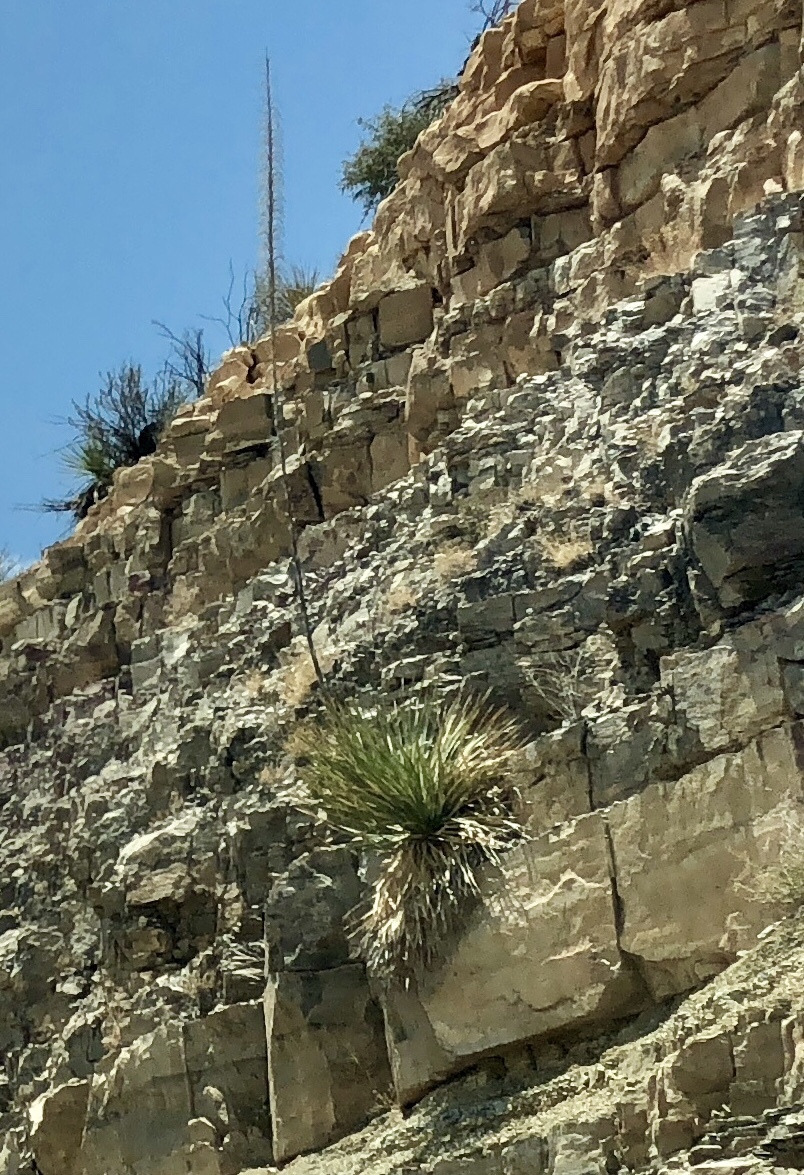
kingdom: Plantae
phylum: Tracheophyta
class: Liliopsida
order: Asparagales
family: Asparagaceae
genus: Dasylirion
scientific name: Dasylirion wheeleri
